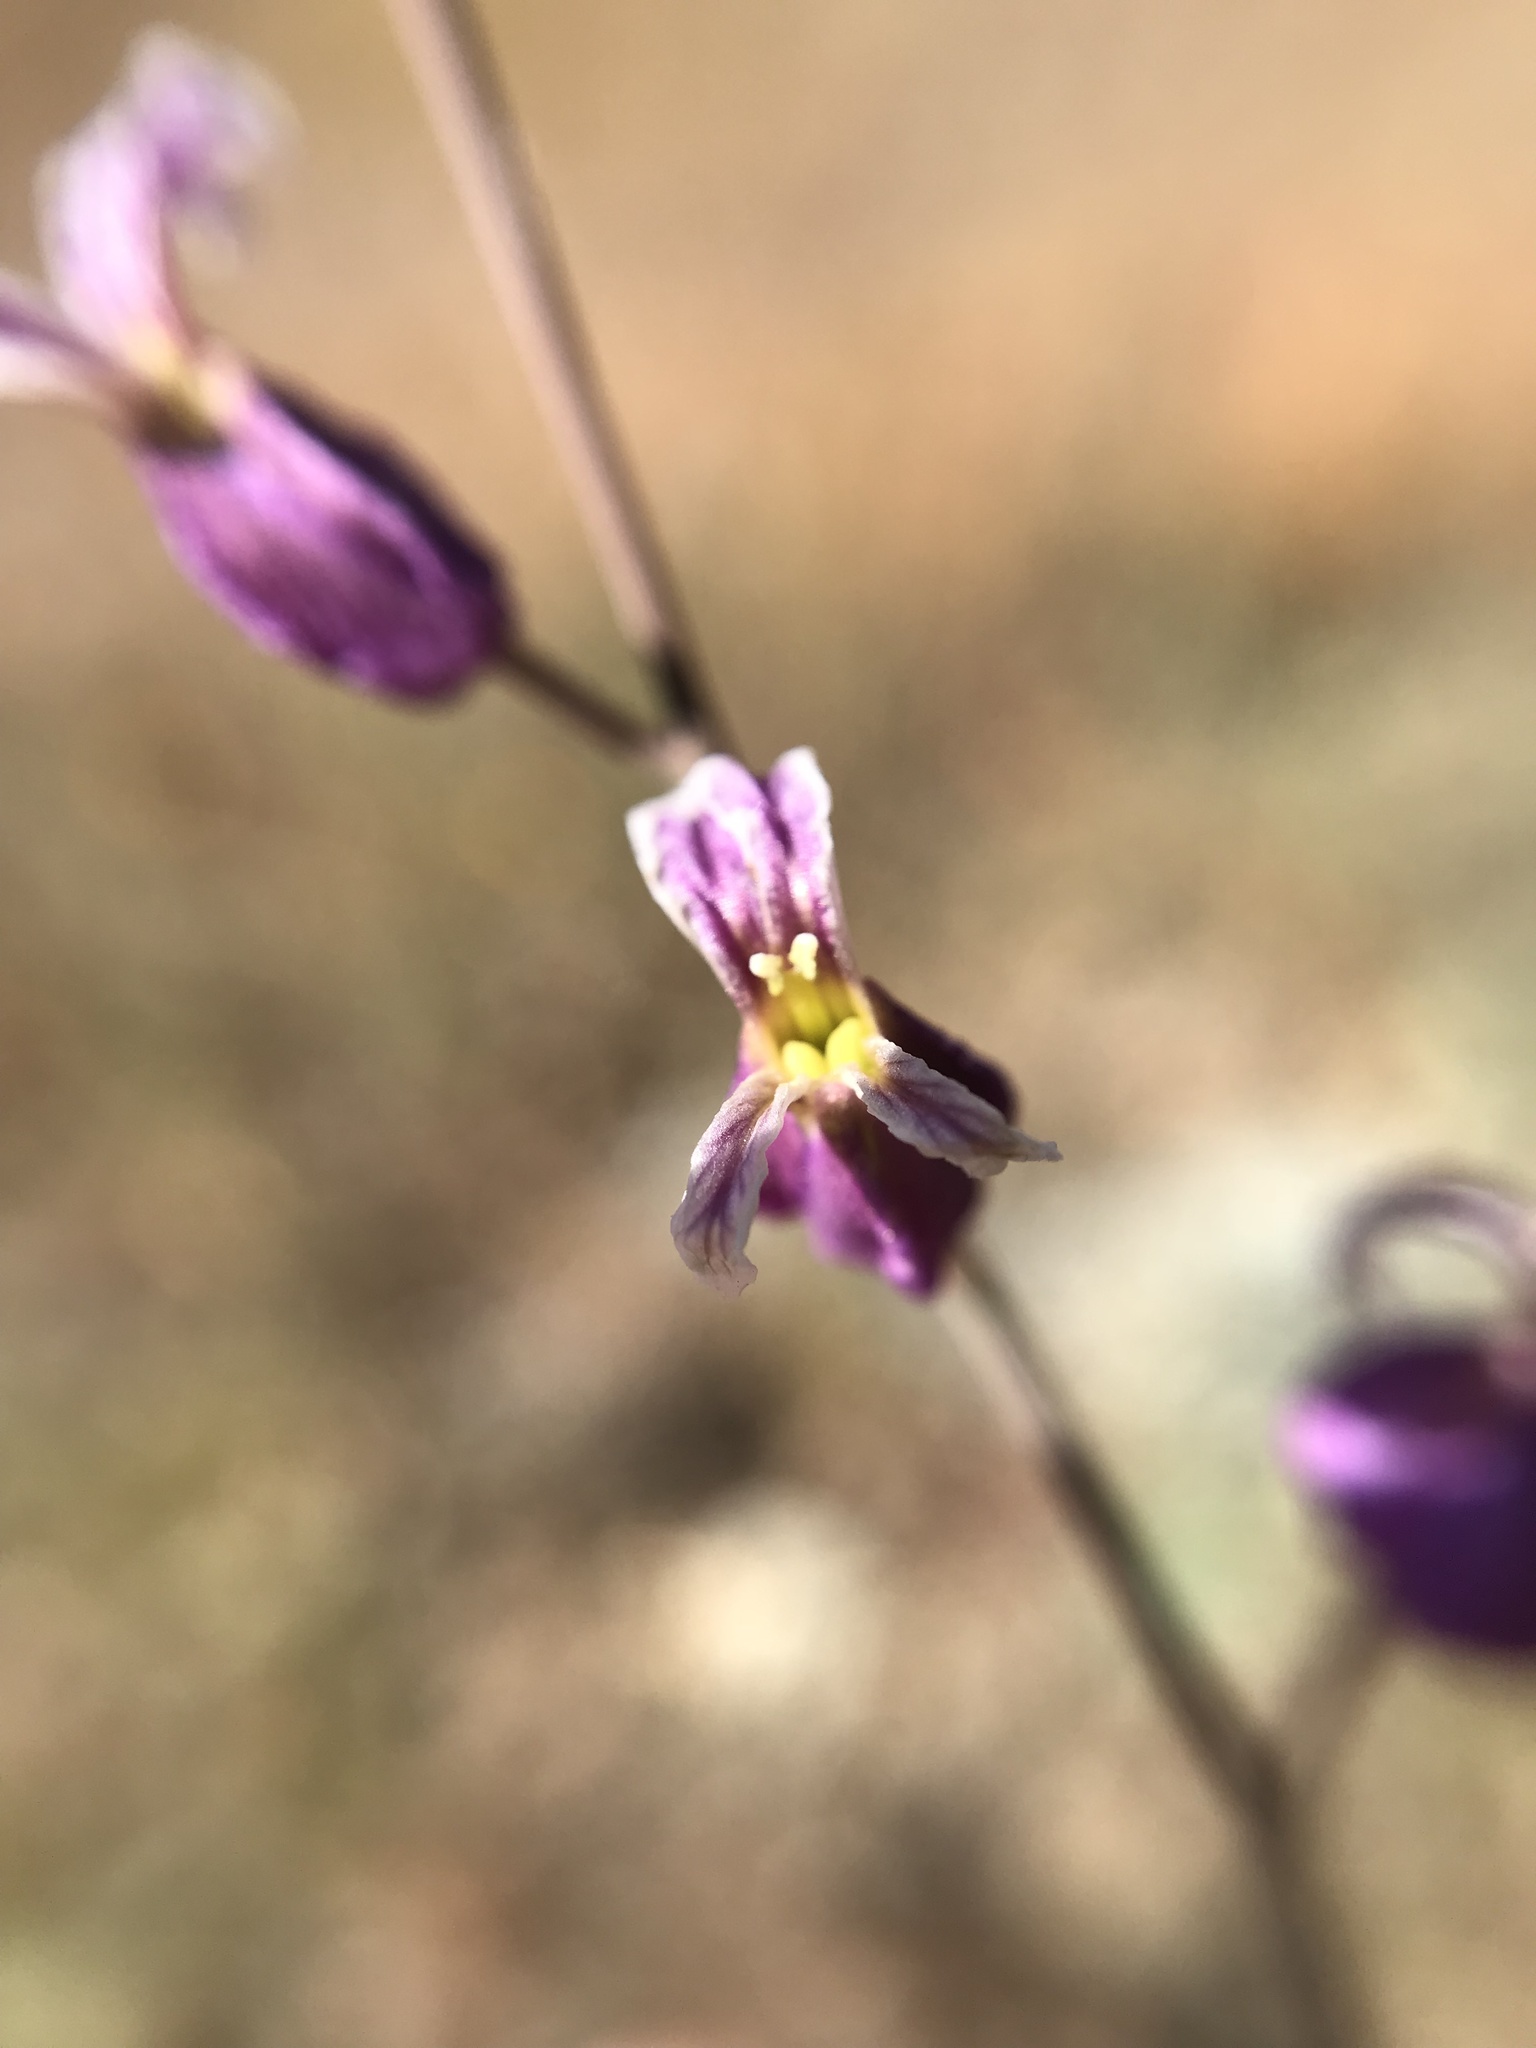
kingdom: Plantae
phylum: Tracheophyta
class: Magnoliopsida
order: Brassicales
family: Brassicaceae
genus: Streptanthus
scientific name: Streptanthus glandulosus
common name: Jewel-flower
